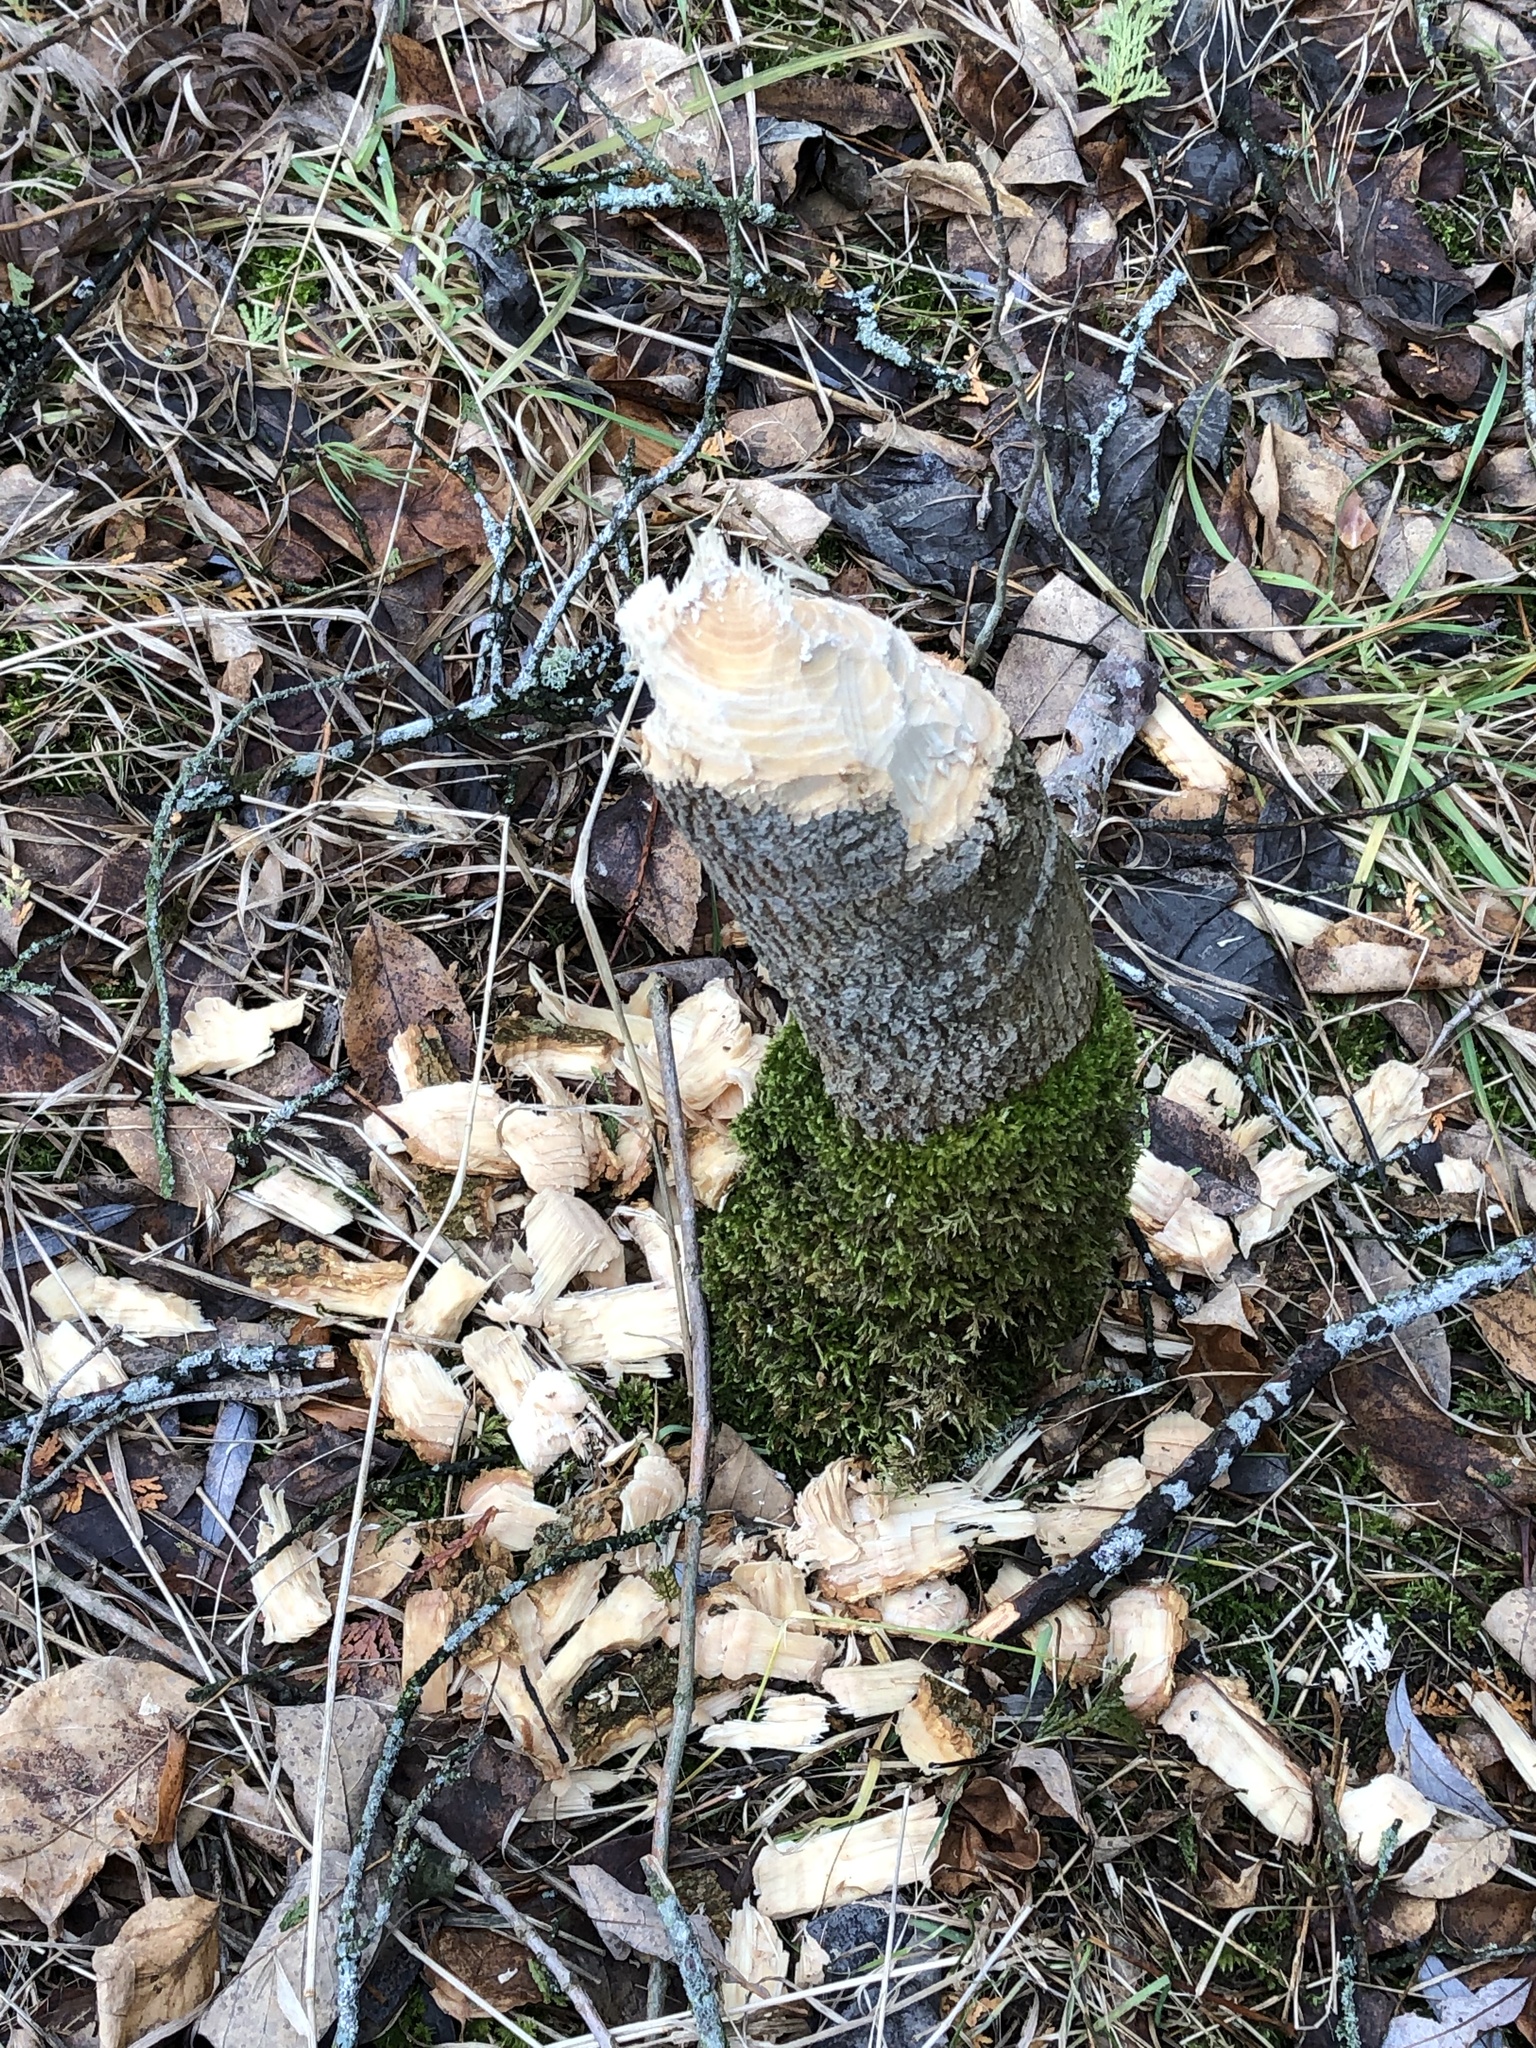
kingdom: Animalia
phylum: Chordata
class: Mammalia
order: Rodentia
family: Castoridae
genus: Castor
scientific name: Castor canadensis
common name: American beaver
